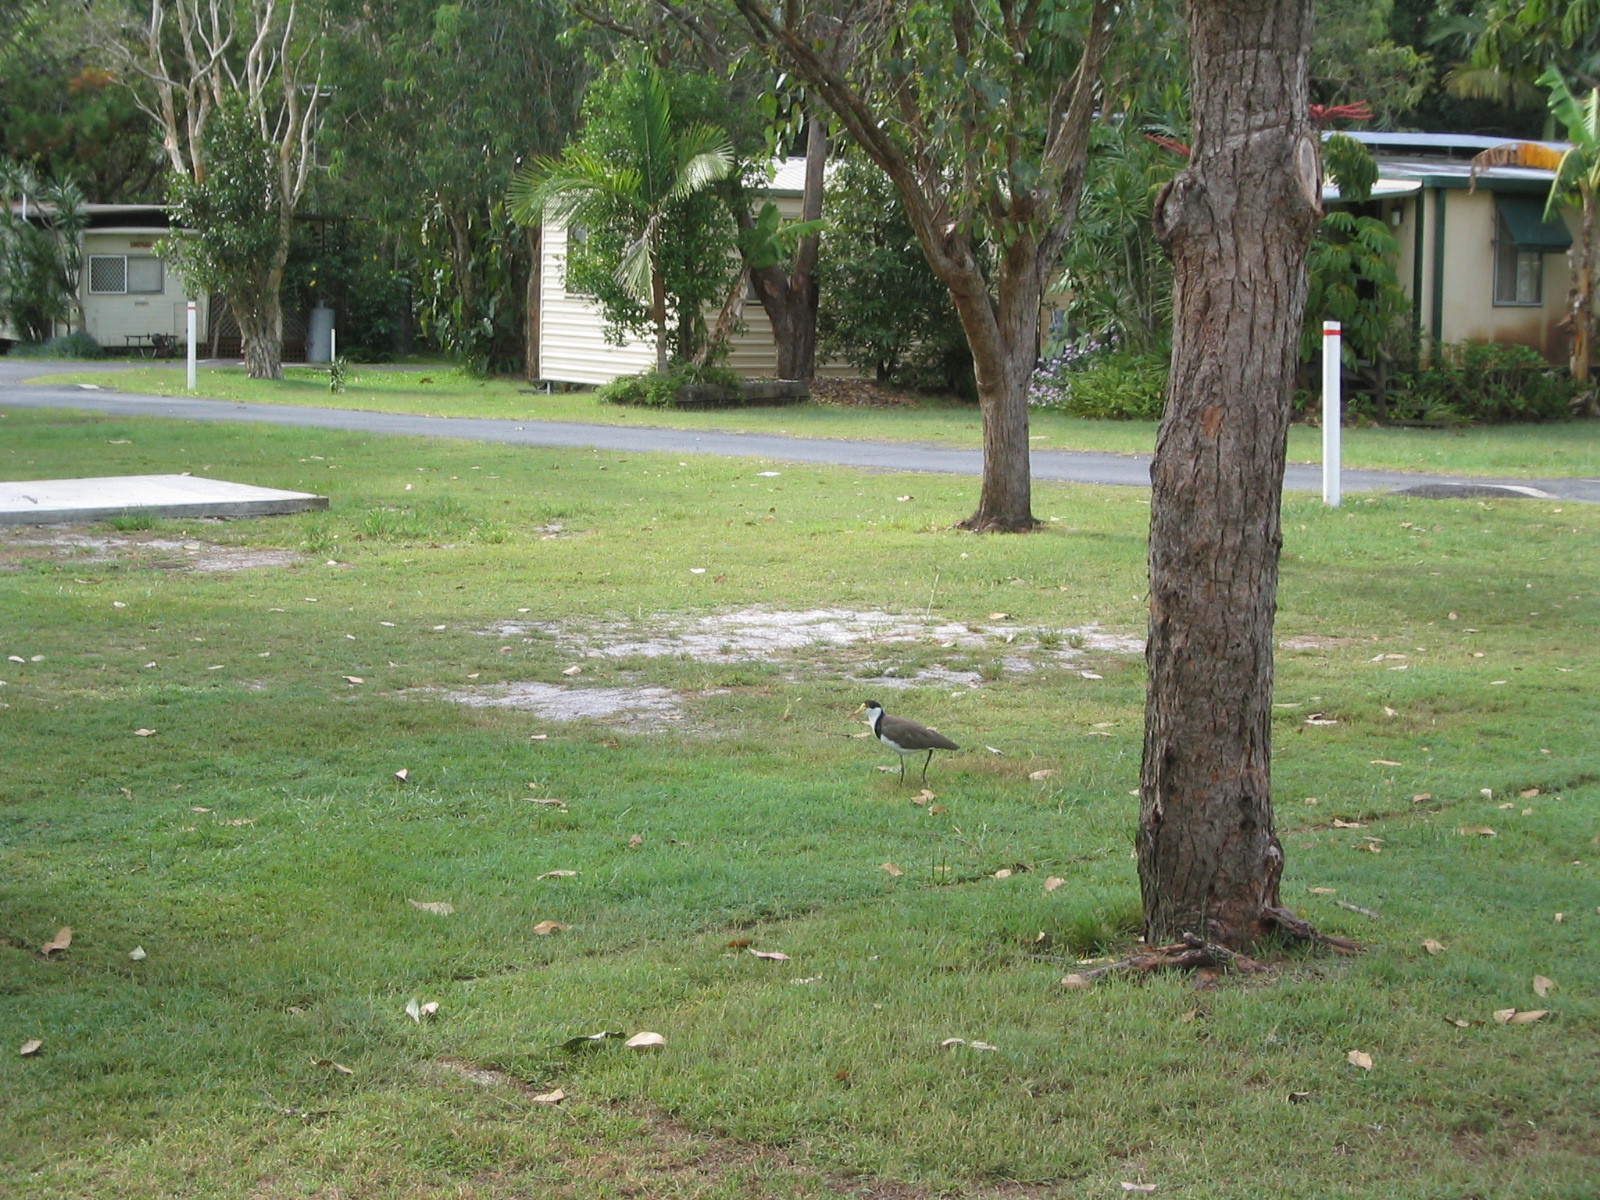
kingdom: Animalia
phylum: Chordata
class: Aves
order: Charadriiformes
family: Charadriidae
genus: Vanellus
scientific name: Vanellus miles
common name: Masked lapwing
